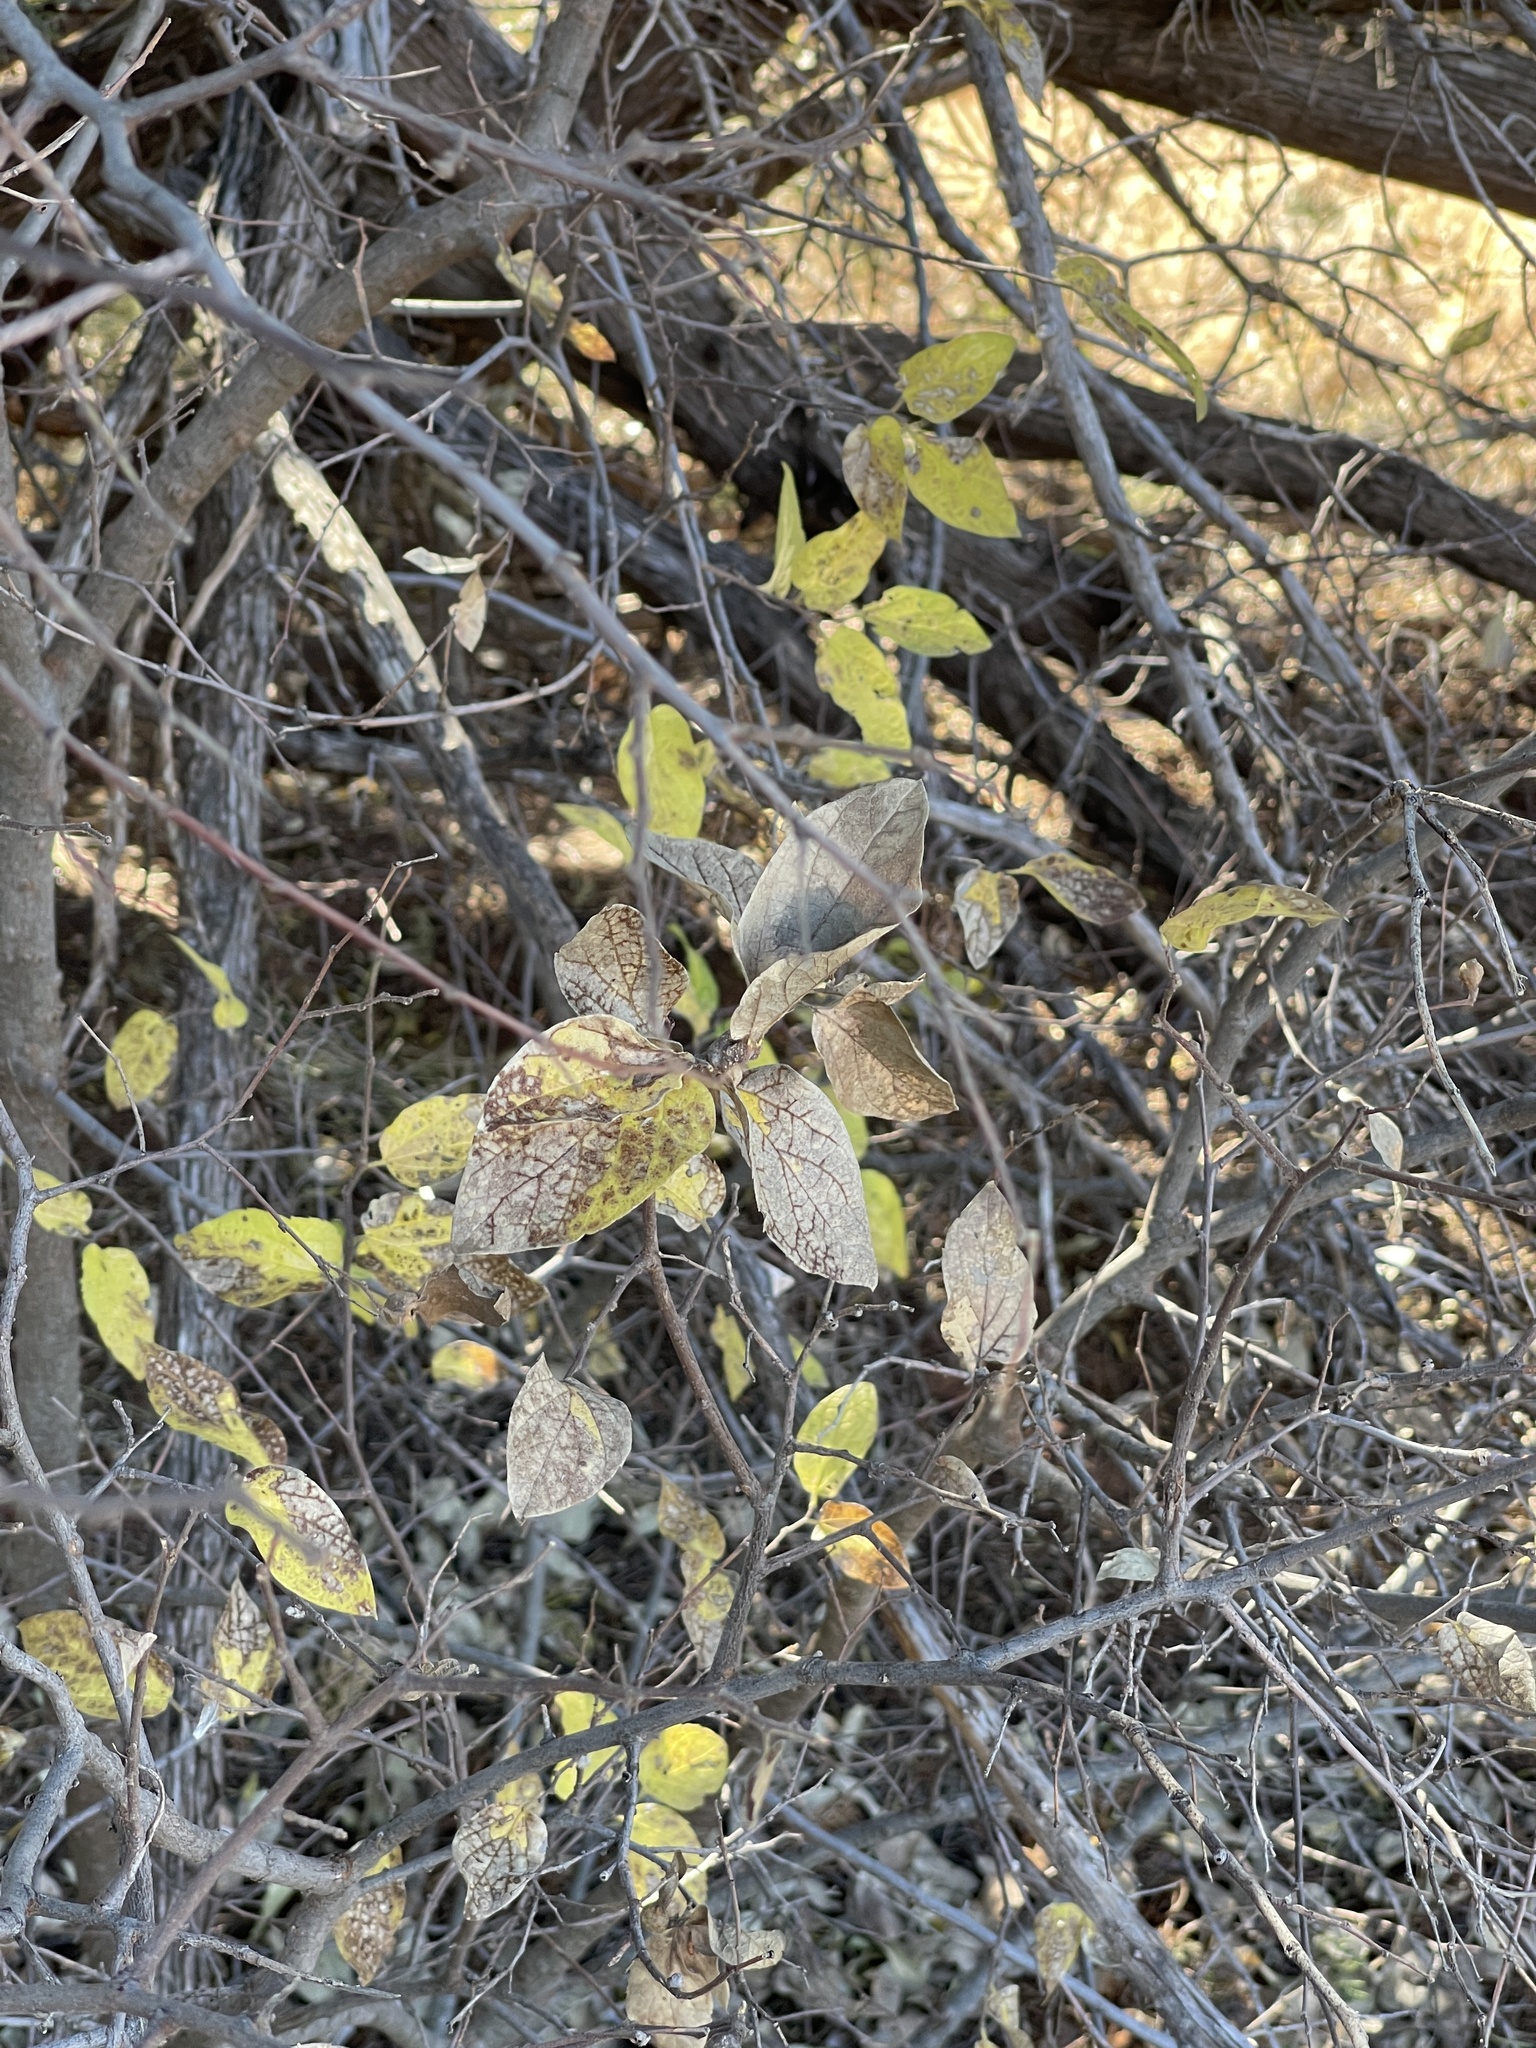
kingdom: Plantae
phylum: Tracheophyta
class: Magnoliopsida
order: Rosales
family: Cannabaceae
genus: Celtis
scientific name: Celtis reticulata
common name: Netleaf hackberry
